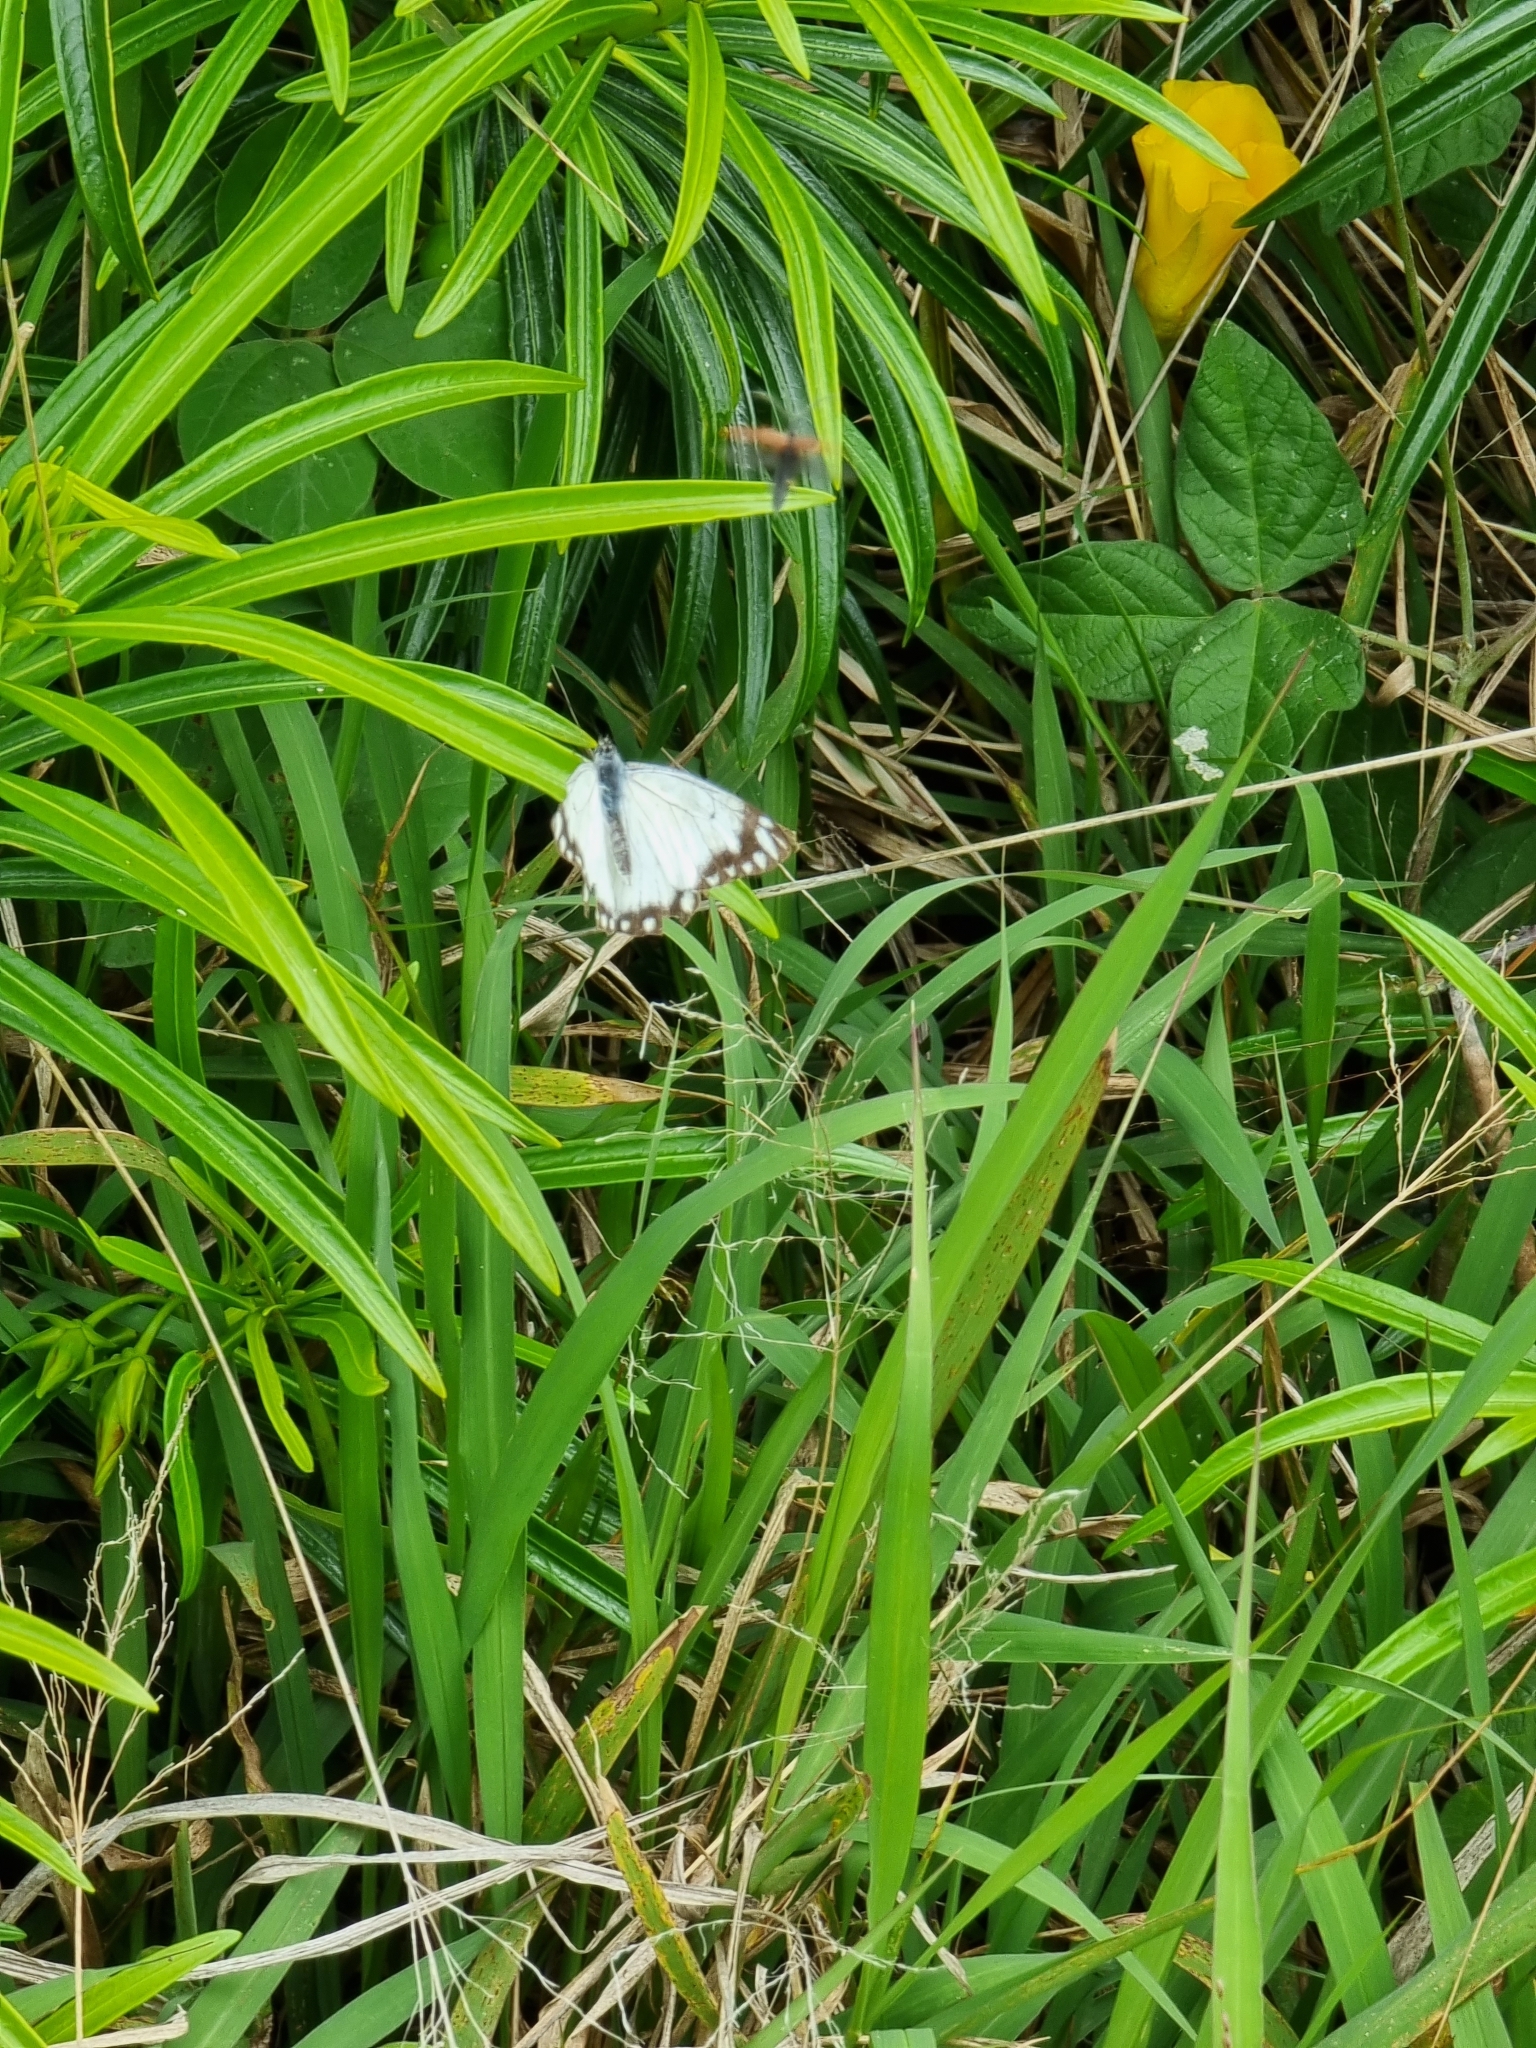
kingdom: Animalia
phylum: Arthropoda
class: Insecta
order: Lepidoptera
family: Pieridae
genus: Belenois
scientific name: Belenois java
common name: Caper white
